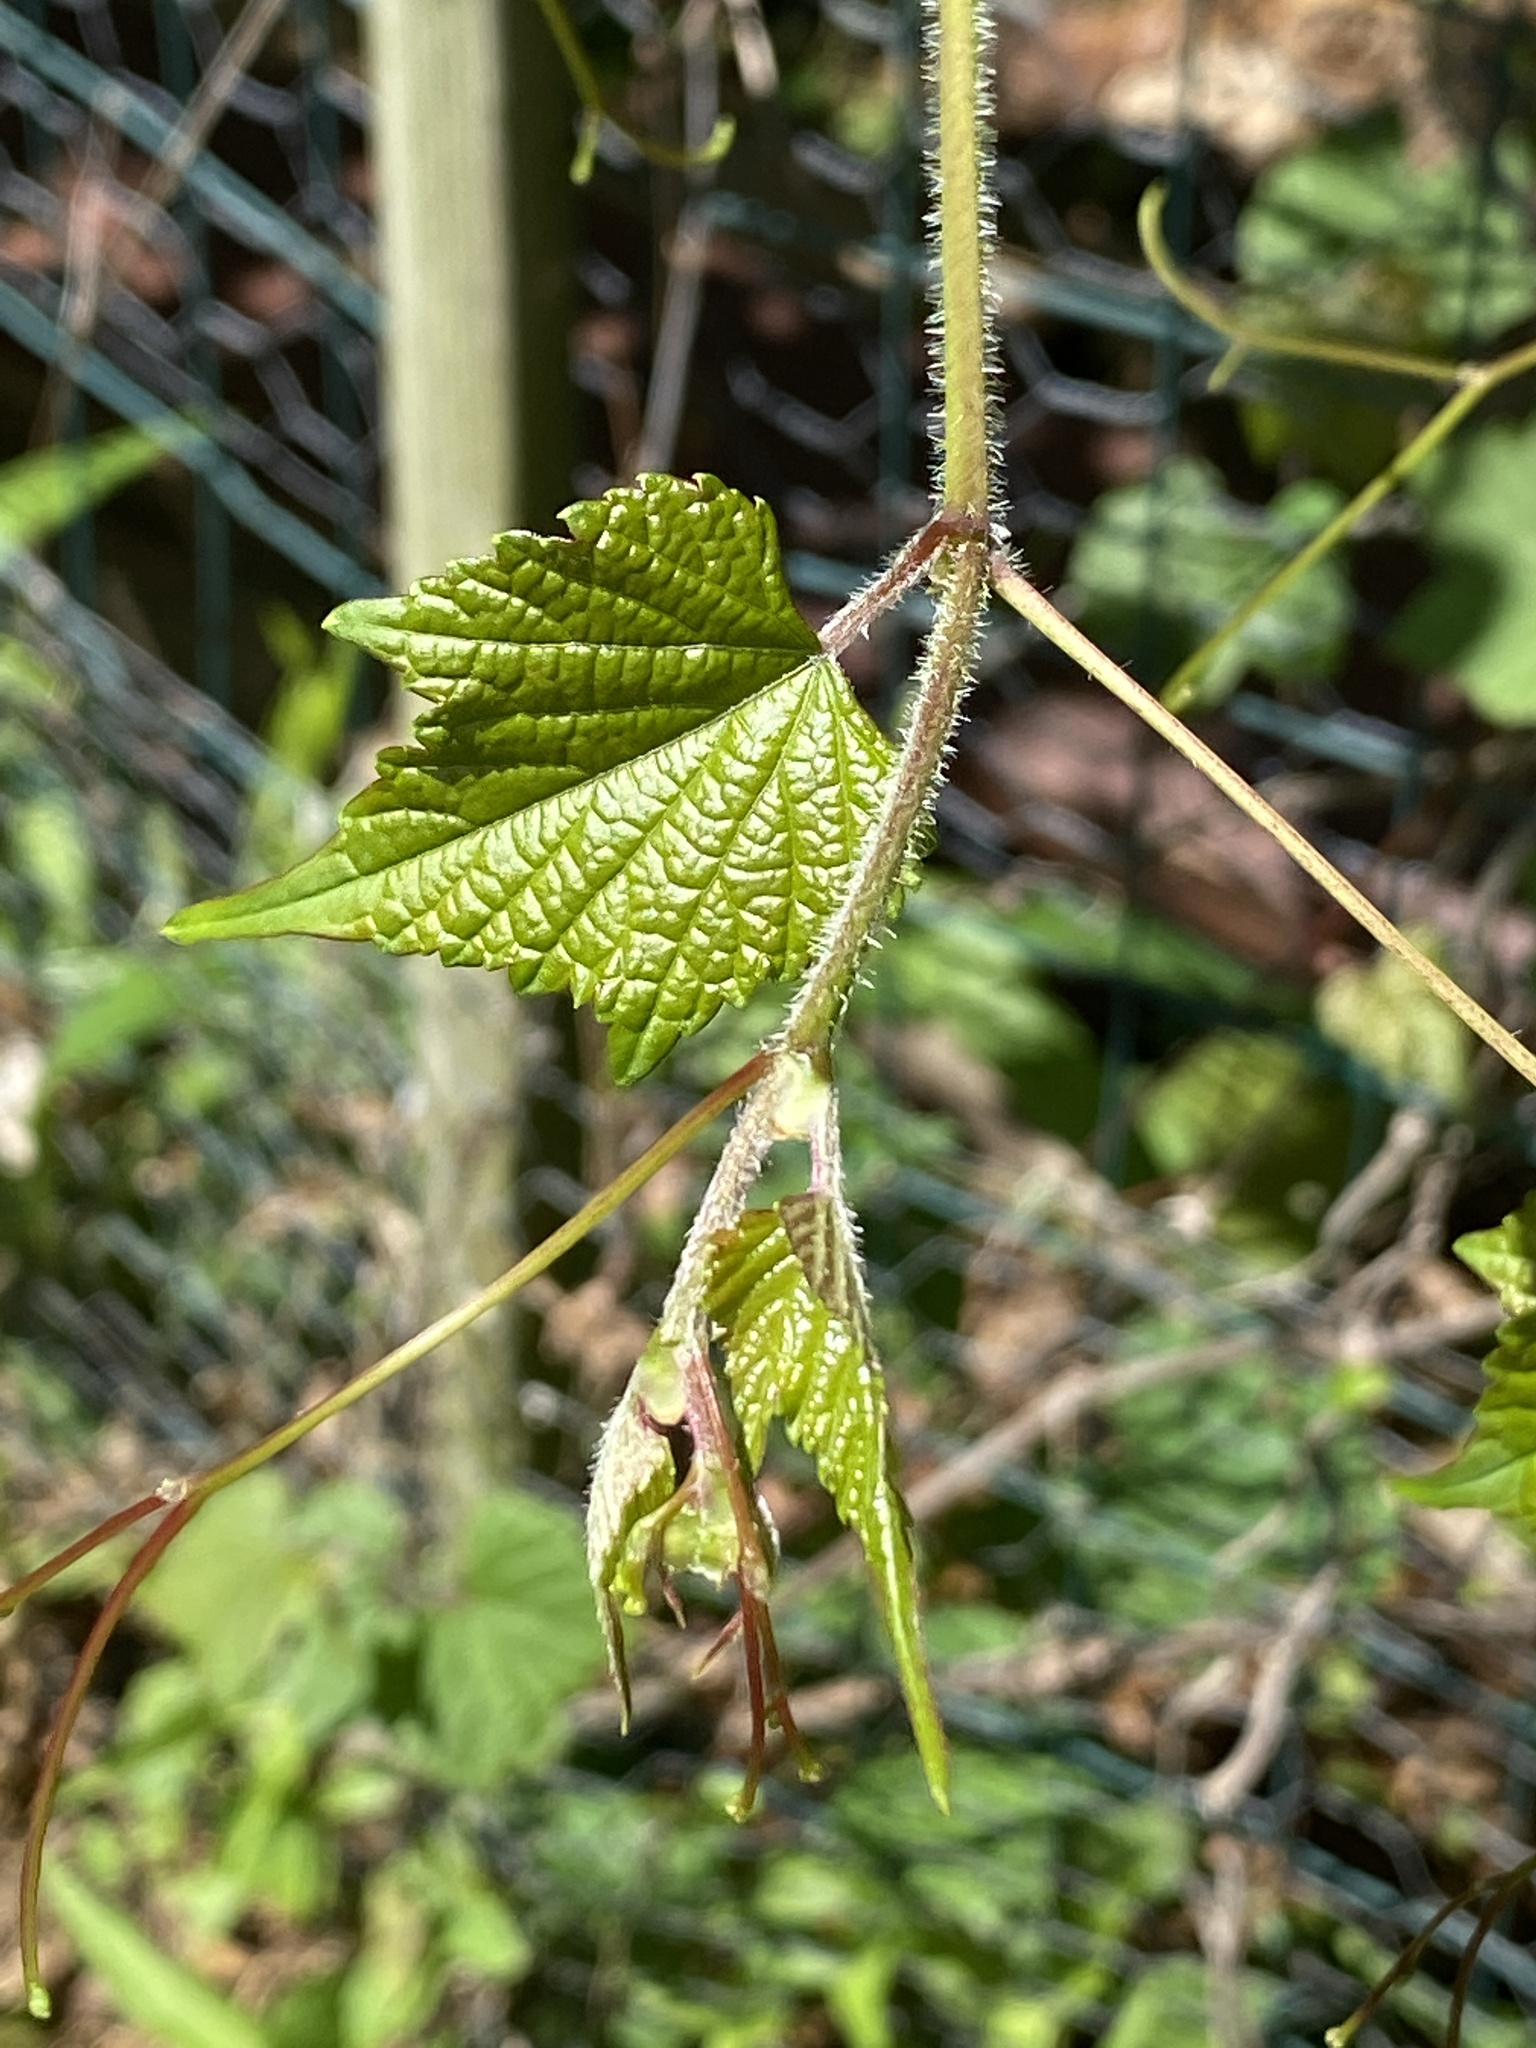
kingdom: Plantae
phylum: Tracheophyta
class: Magnoliopsida
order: Vitales
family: Vitaceae
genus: Ampelopsis
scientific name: Ampelopsis glandulosa
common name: Amur peppervine
